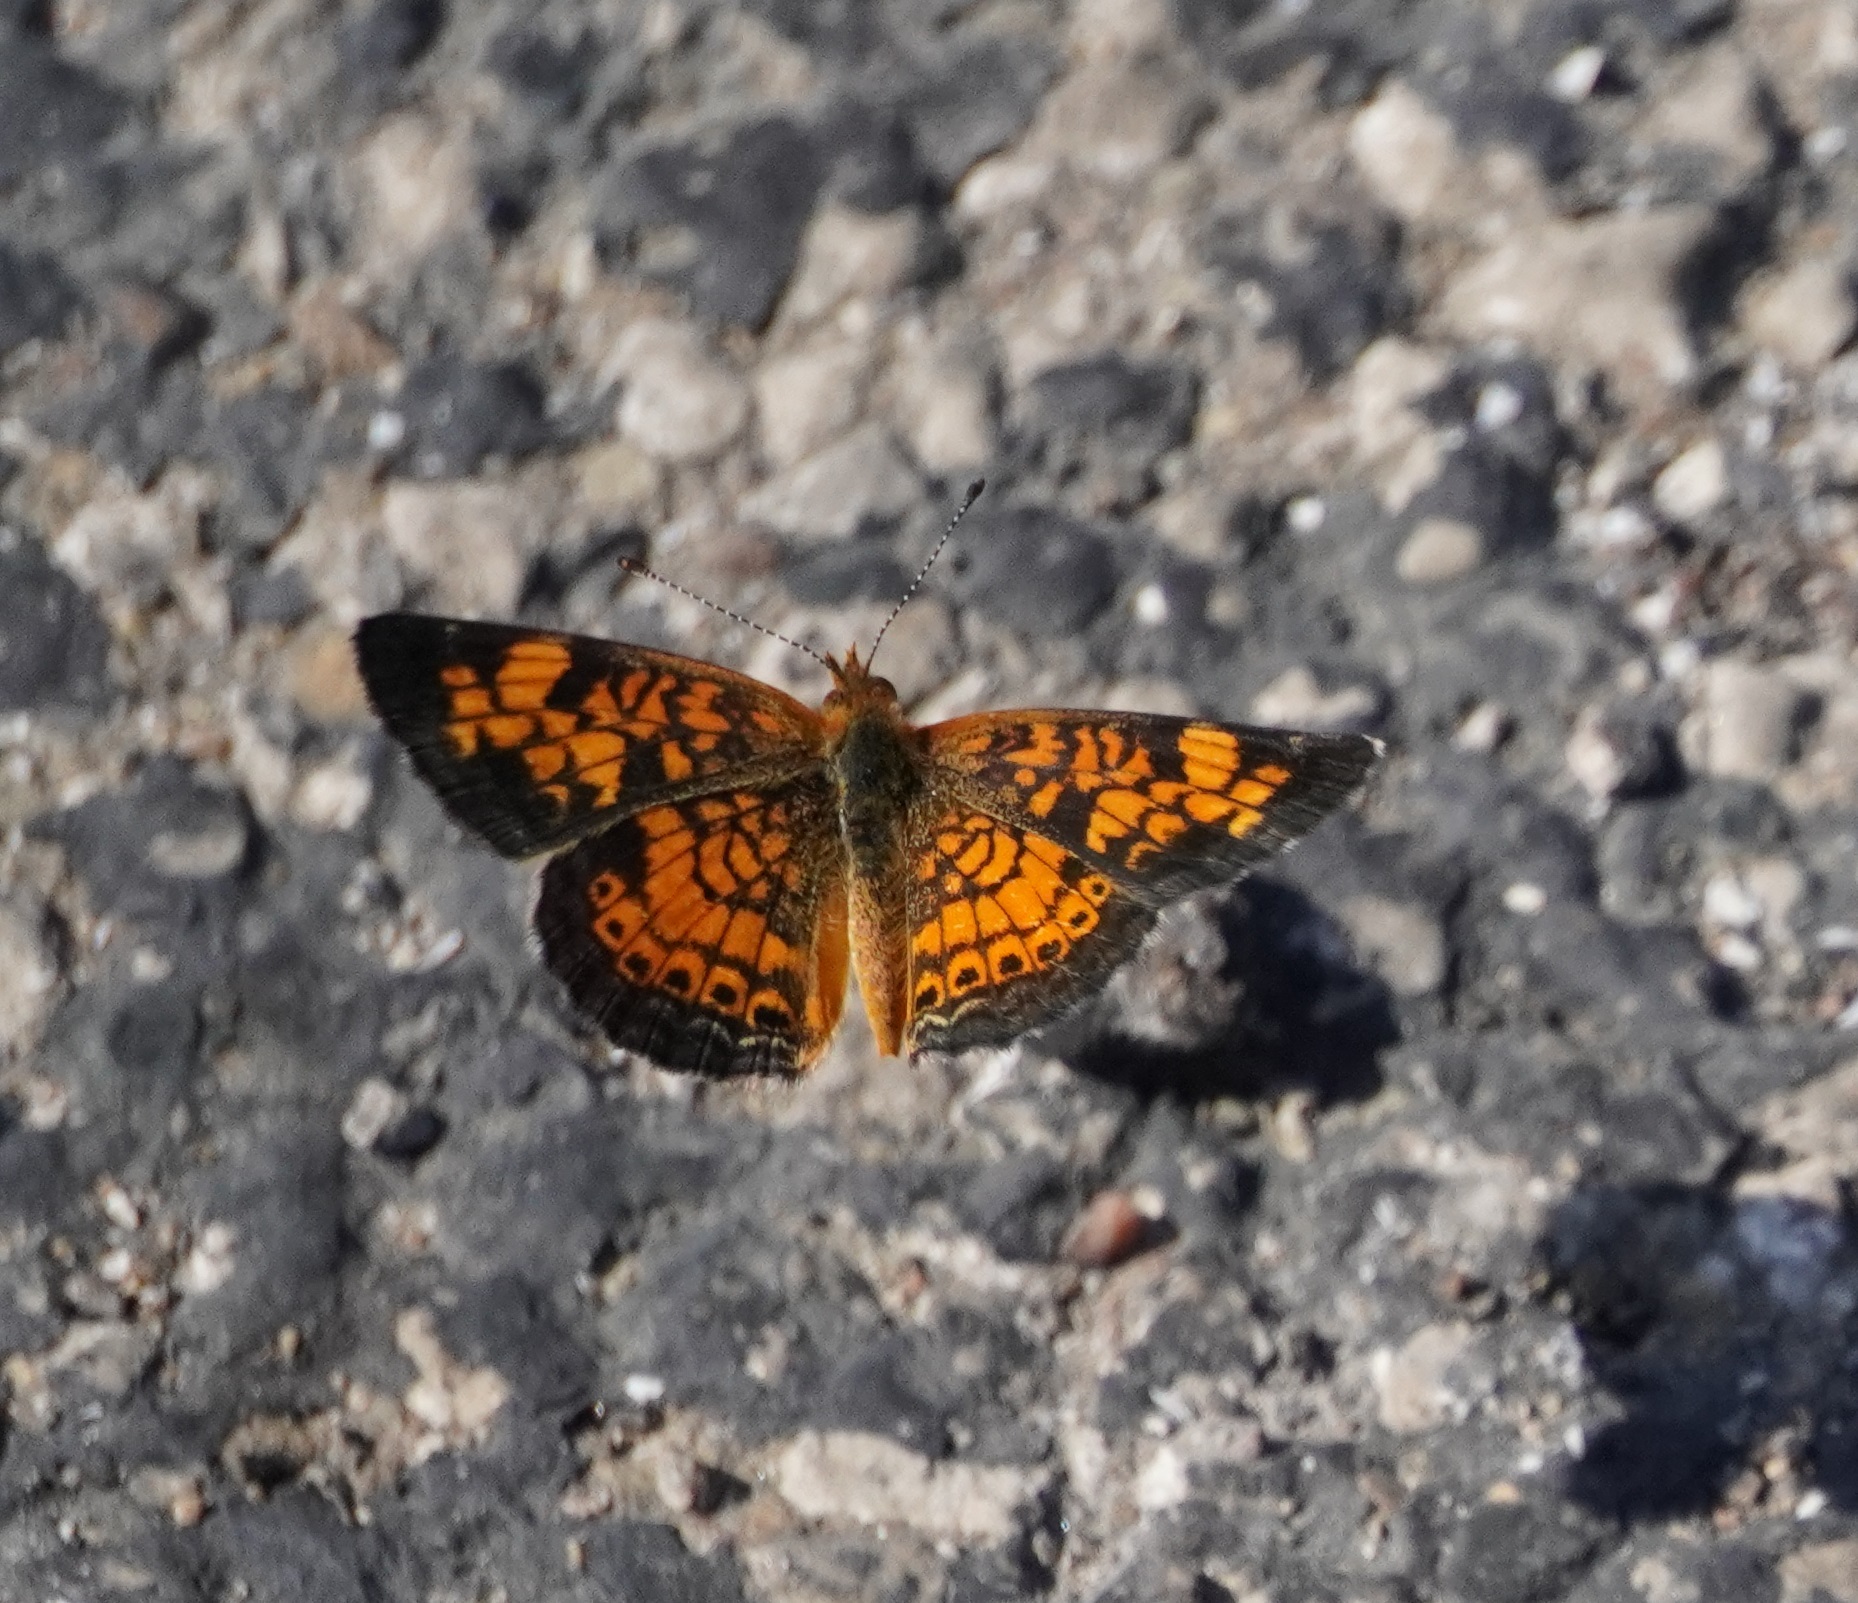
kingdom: Animalia
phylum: Arthropoda
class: Insecta
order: Lepidoptera
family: Nymphalidae
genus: Phyciodes
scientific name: Phyciodes tharos
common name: Pearl crescent
